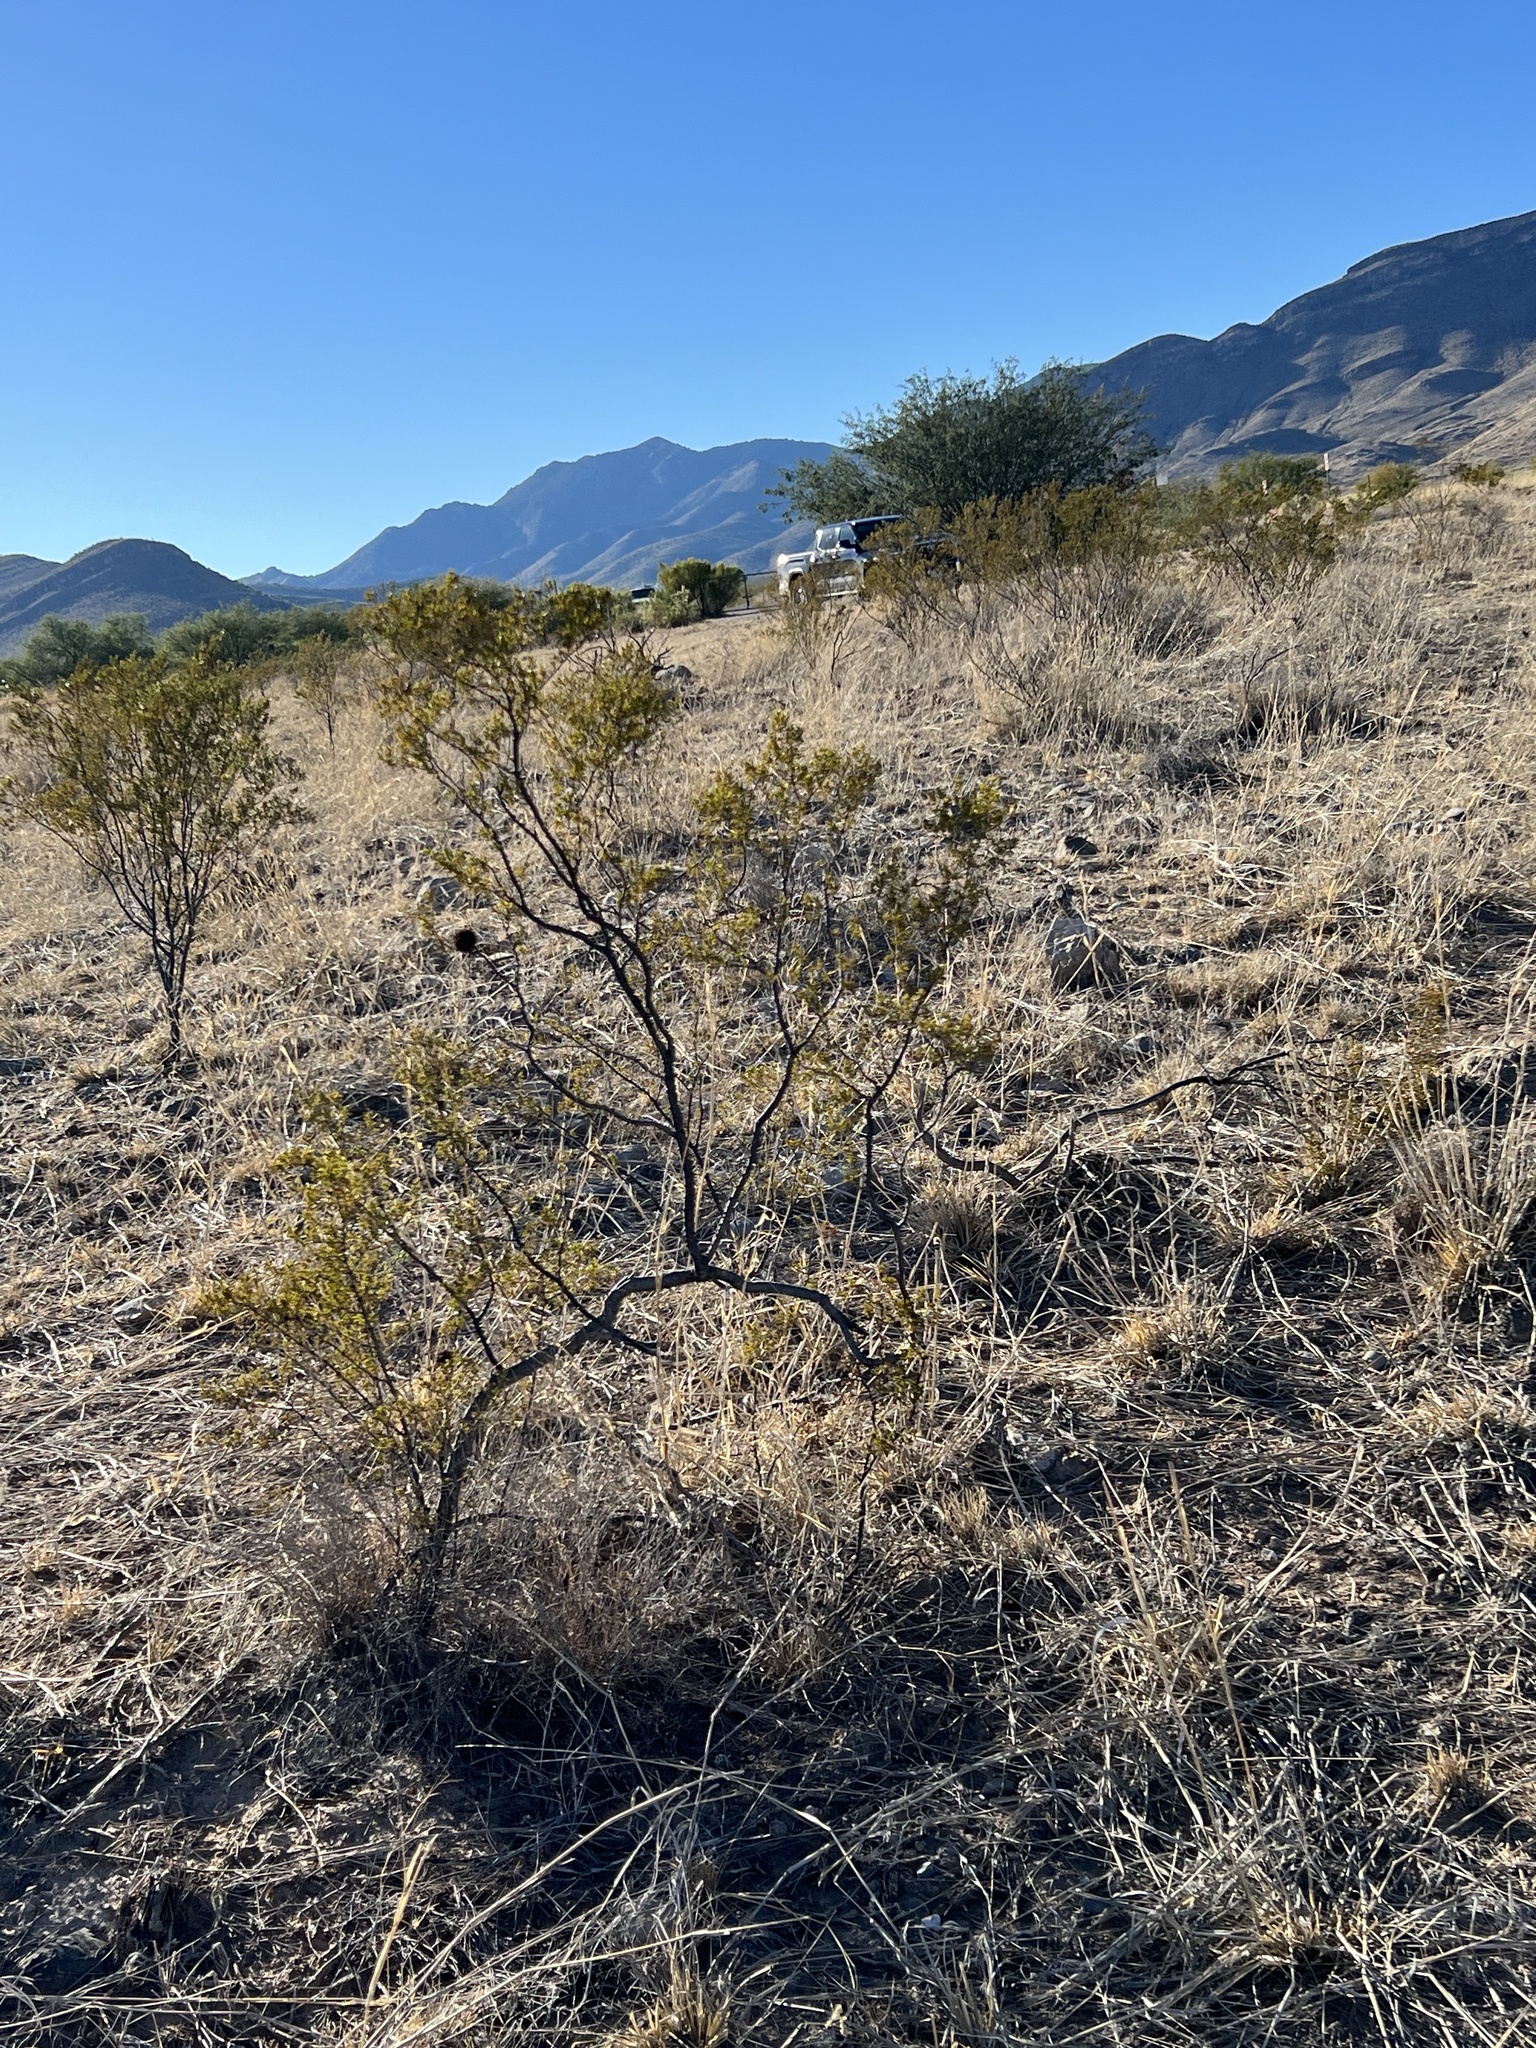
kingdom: Plantae
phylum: Tracheophyta
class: Magnoliopsida
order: Zygophyllales
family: Zygophyllaceae
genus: Larrea
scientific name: Larrea tridentata
